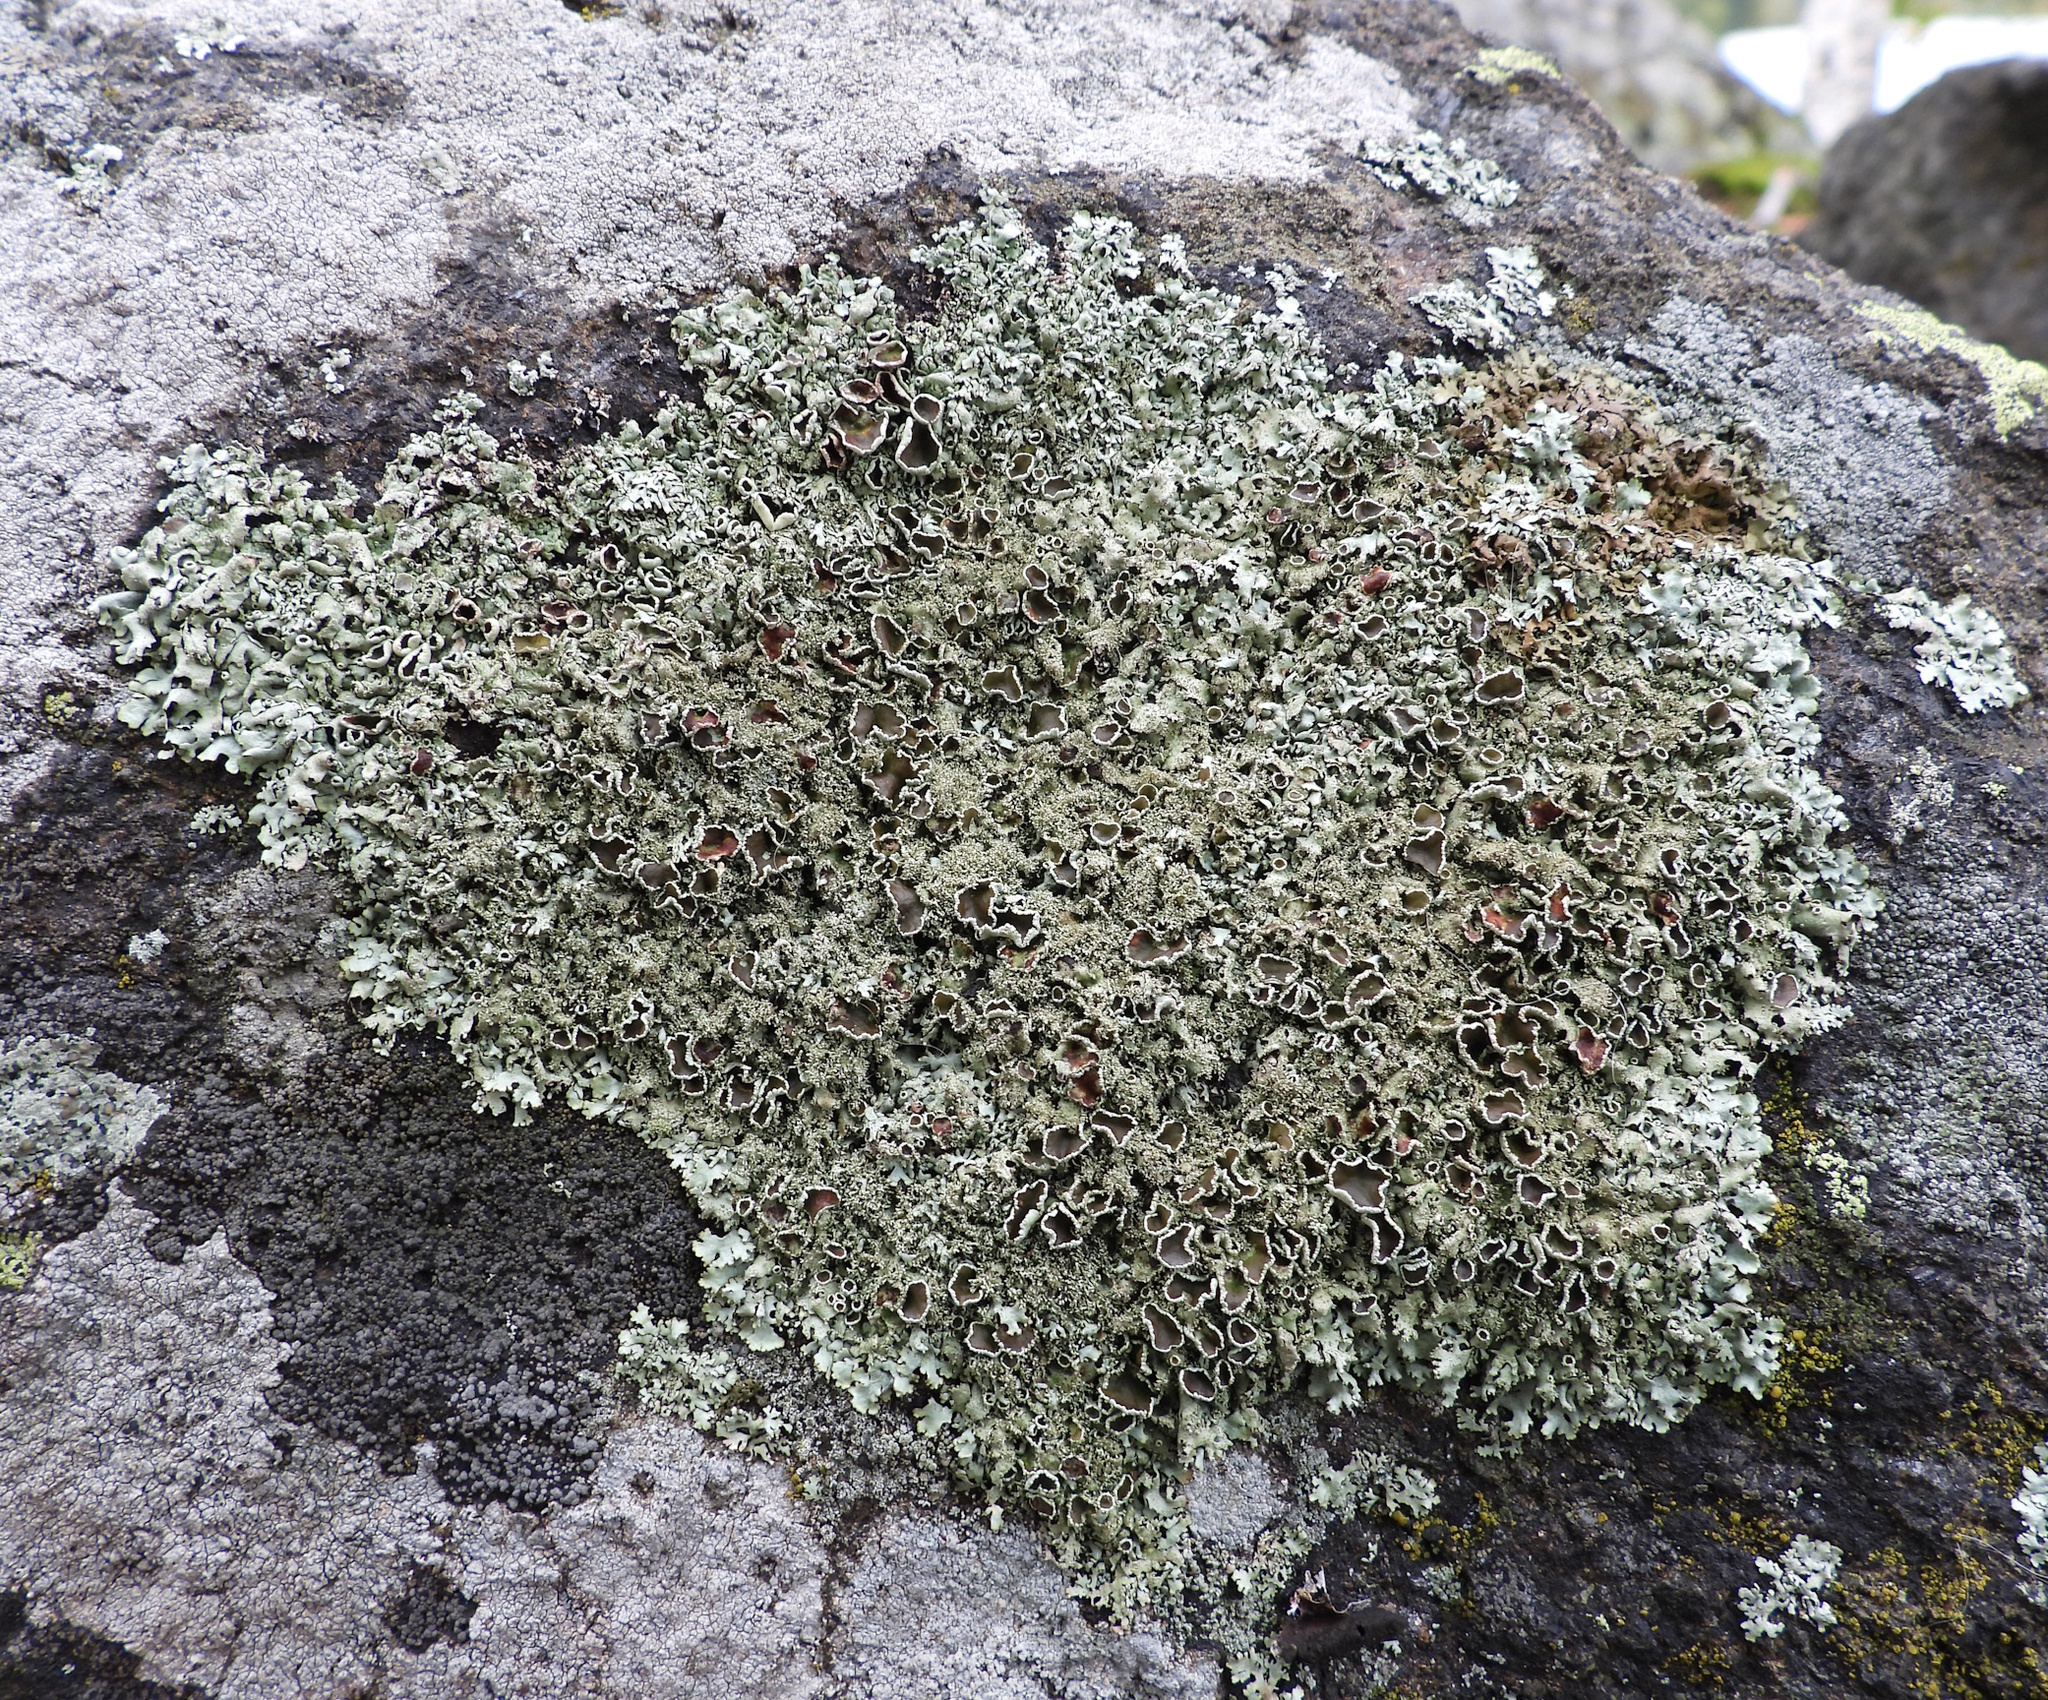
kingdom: Fungi
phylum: Ascomycota
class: Lecanoromycetes
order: Lecanorales
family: Parmeliaceae
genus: Xanthoparmelia
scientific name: Xanthoparmelia conspersa
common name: Peppered rock shield
